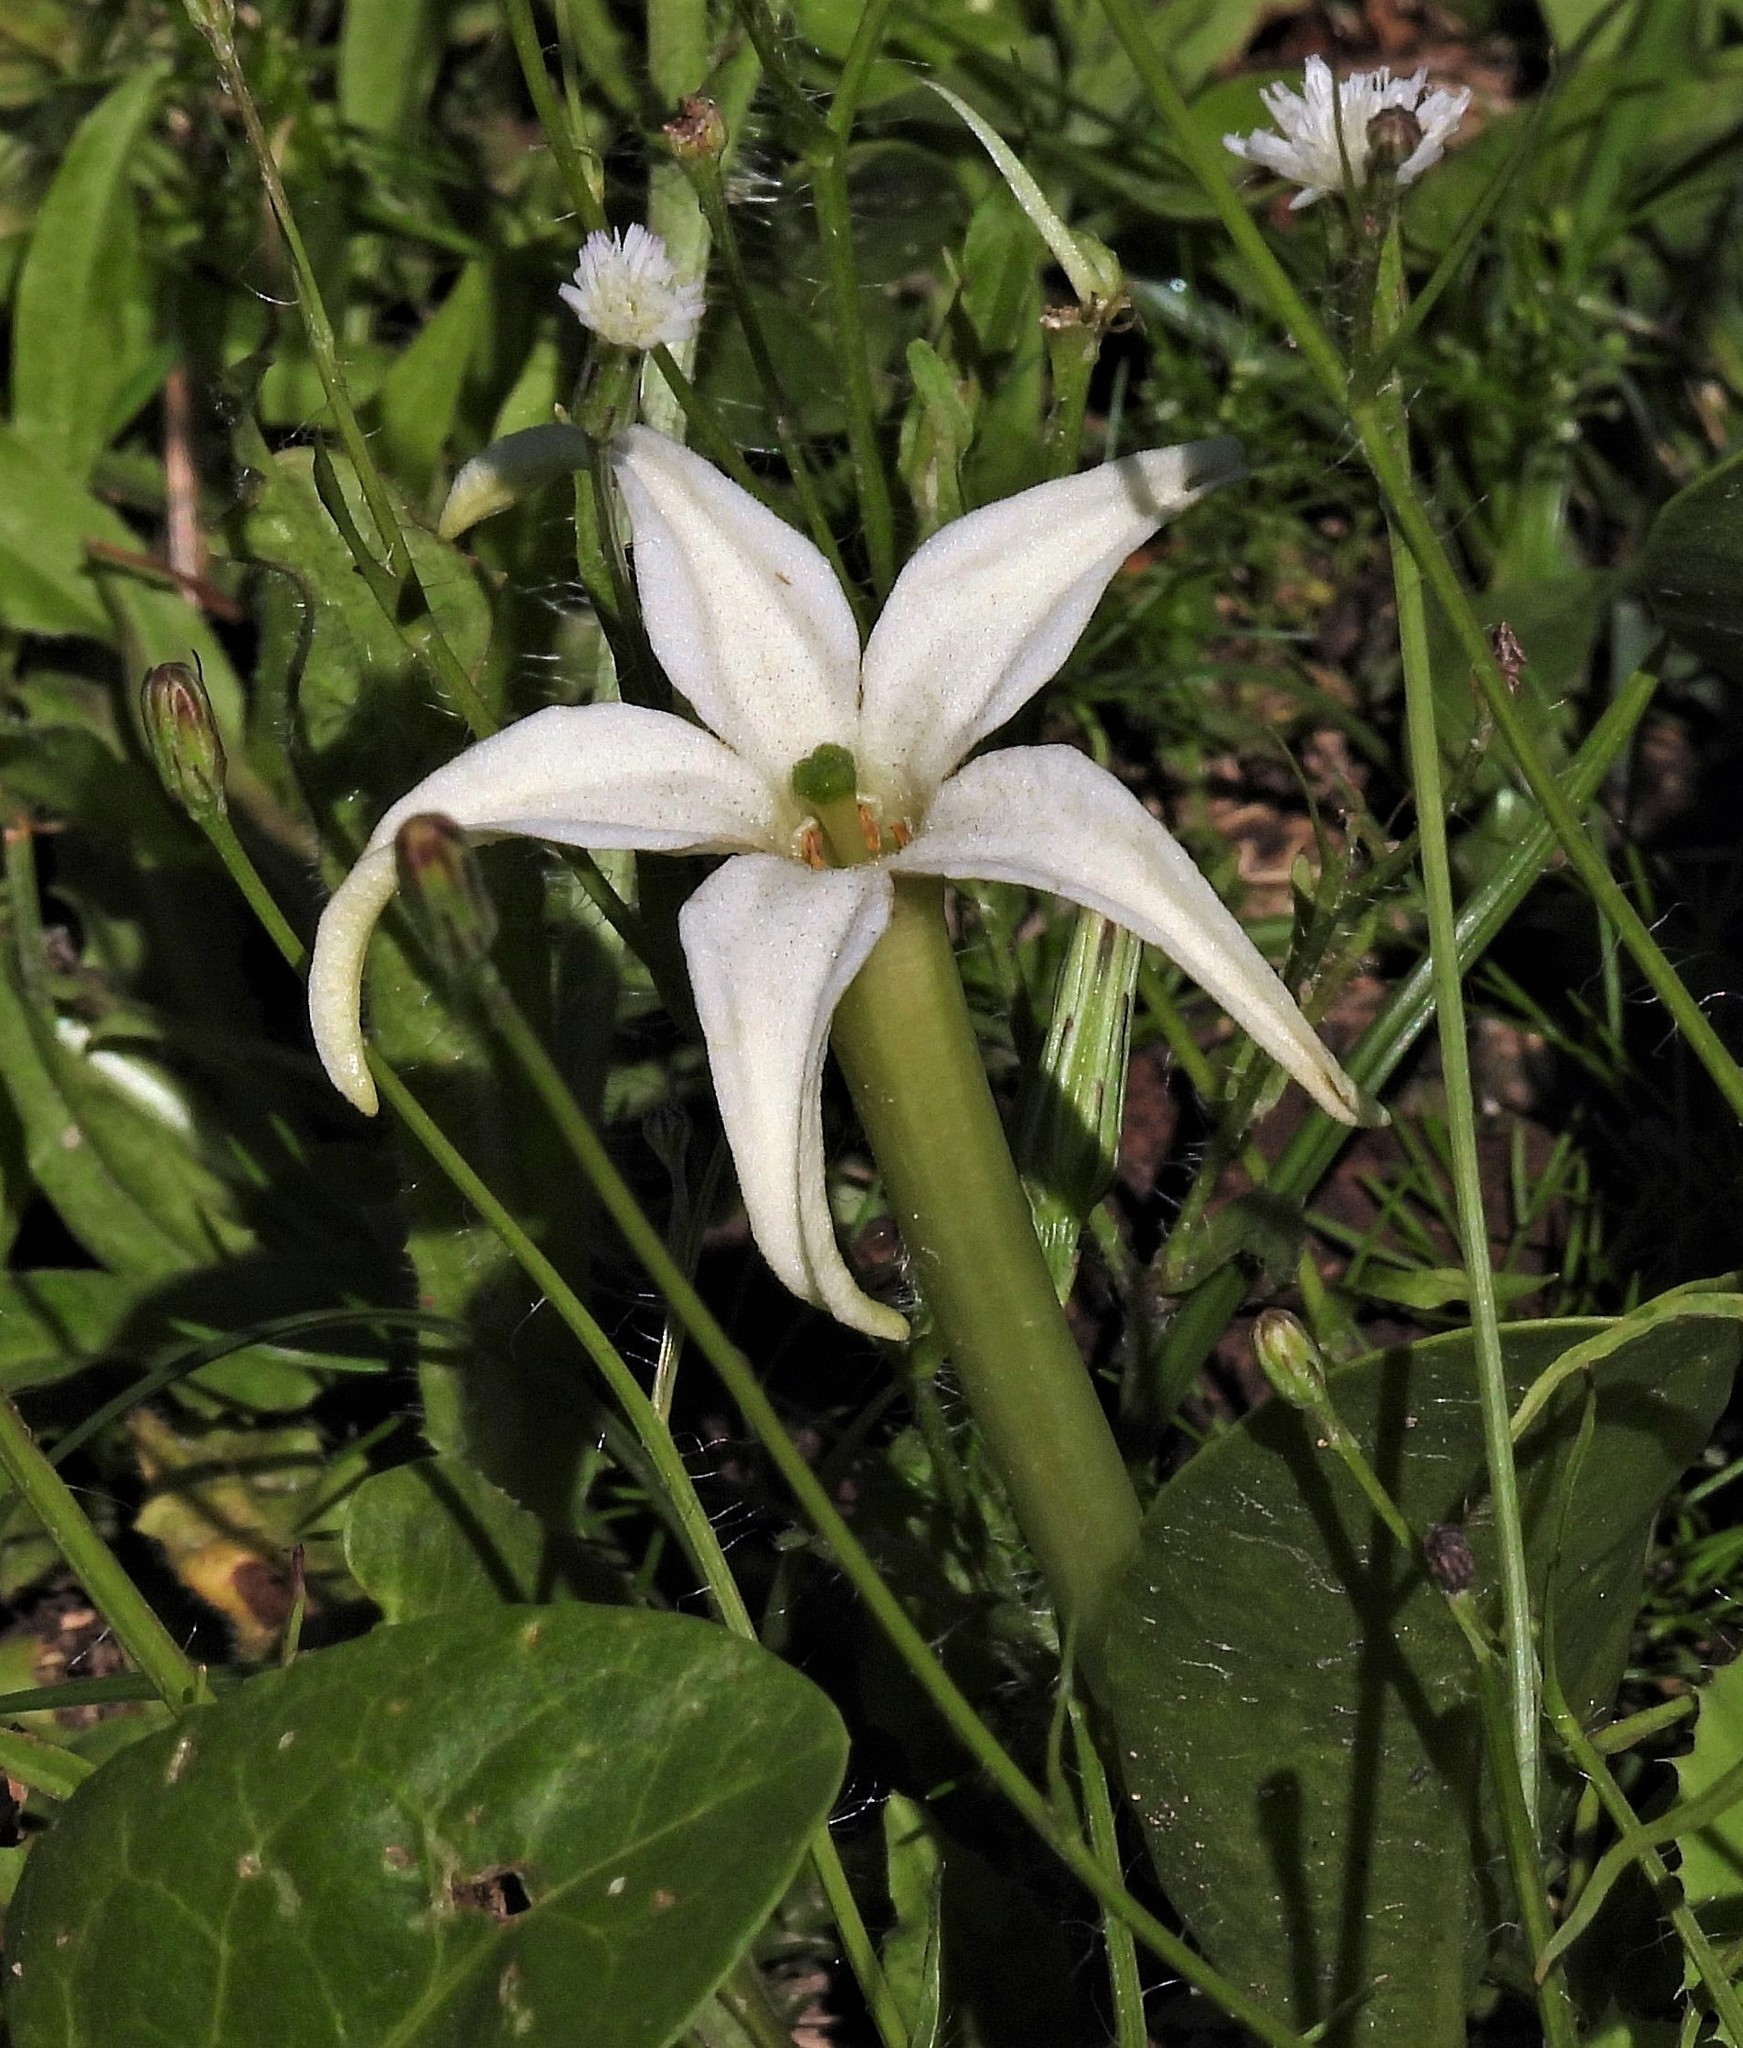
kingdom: Plantae
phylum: Tracheophyta
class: Magnoliopsida
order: Solanales
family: Solanaceae
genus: Jaborosa
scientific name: Jaborosa integrifolia
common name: Springblossom
